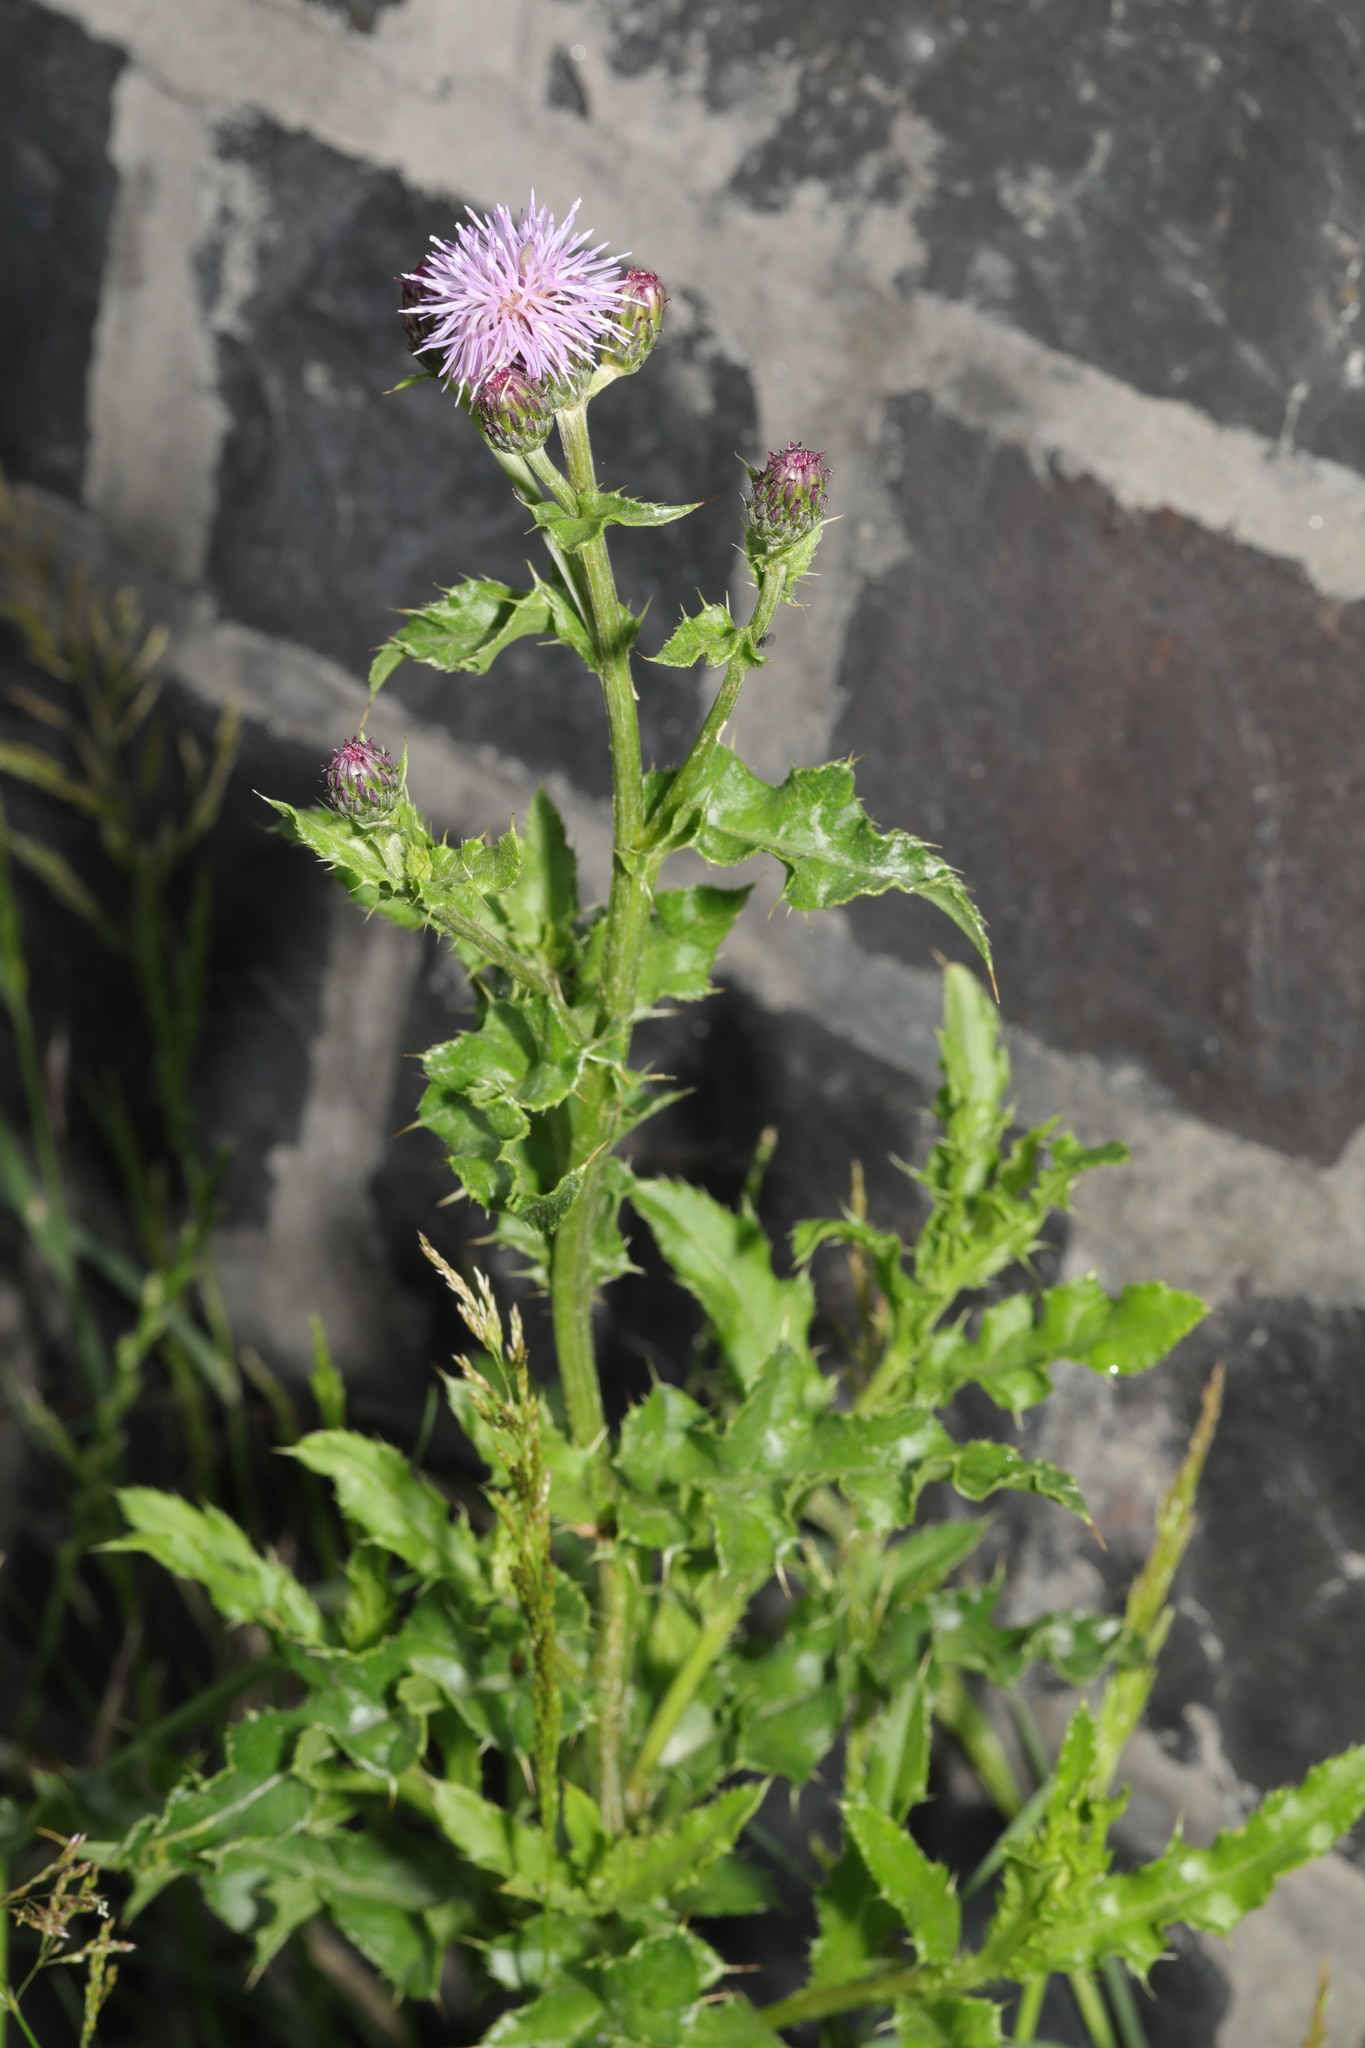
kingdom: Plantae
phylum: Tracheophyta
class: Magnoliopsida
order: Asterales
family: Asteraceae
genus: Cirsium
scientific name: Cirsium arvense
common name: Creeping thistle
